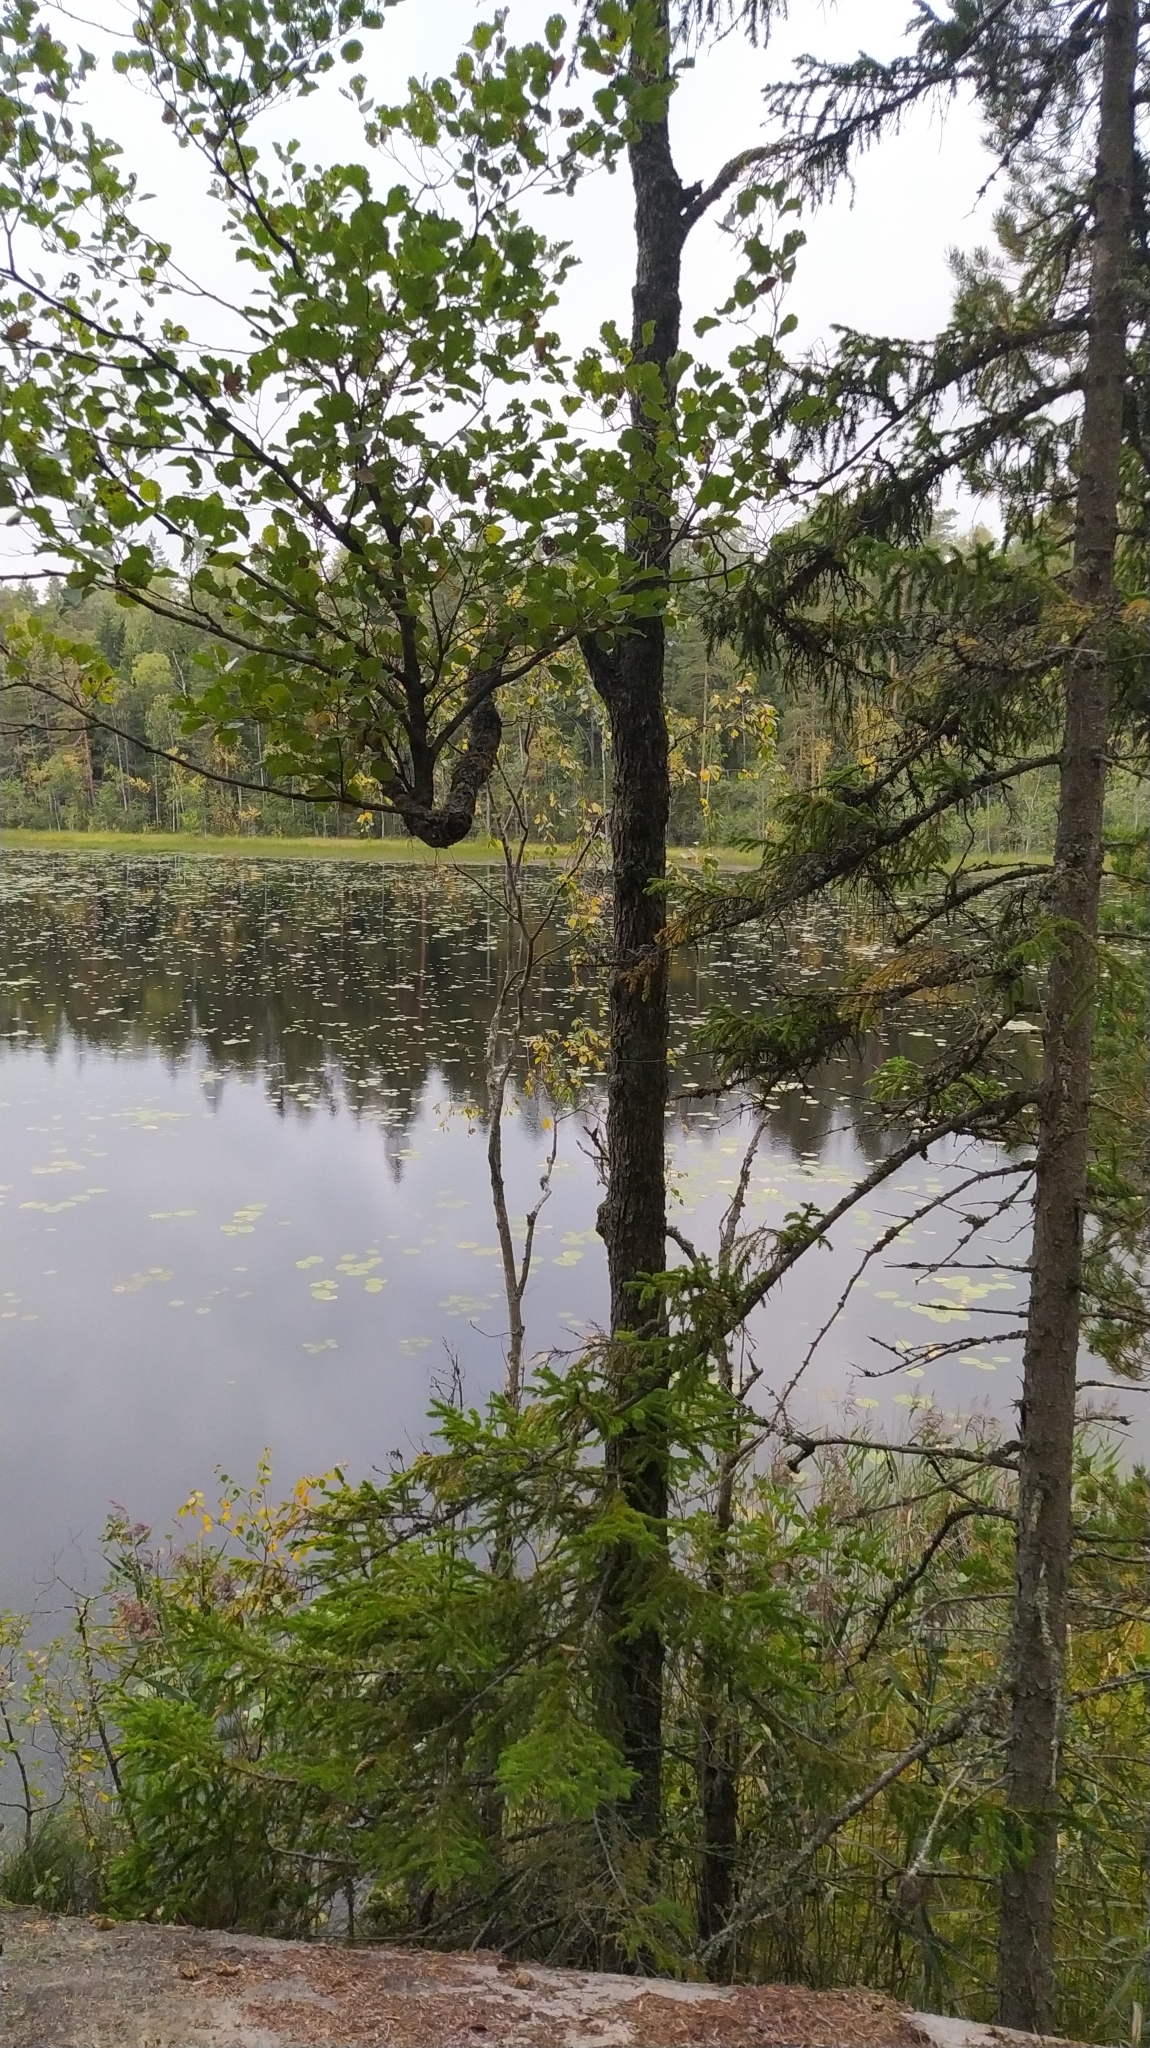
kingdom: Plantae
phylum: Tracheophyta
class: Magnoliopsida
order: Malpighiales
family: Salicaceae
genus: Populus
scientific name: Populus tremula
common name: European aspen
